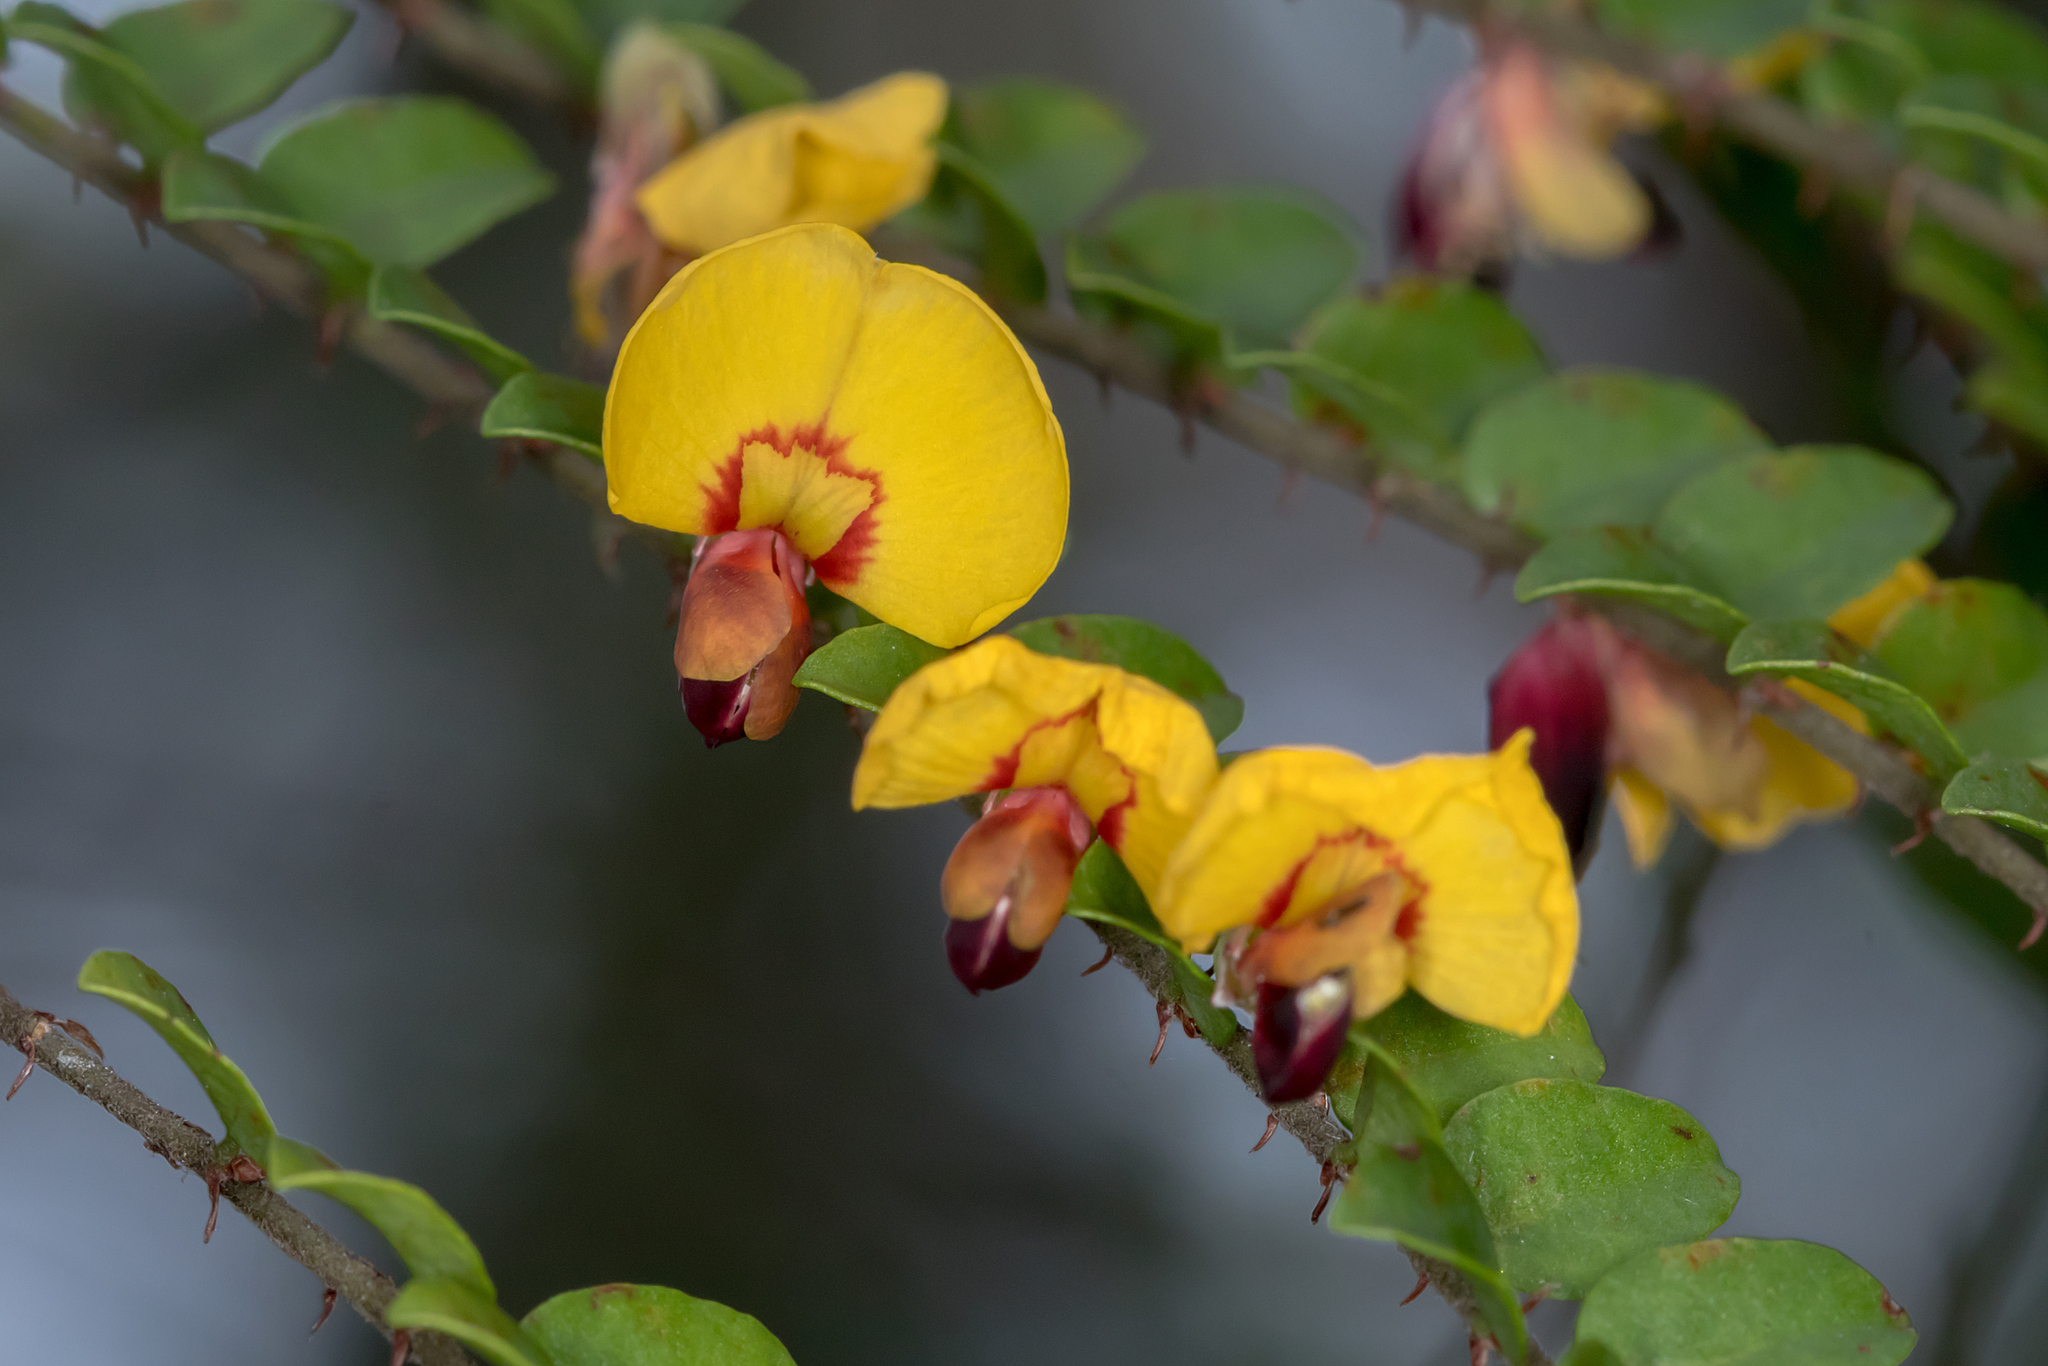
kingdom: Plantae
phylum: Tracheophyta
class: Magnoliopsida
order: Fabales
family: Fabaceae
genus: Bossiaea
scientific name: Bossiaea heterophylla
